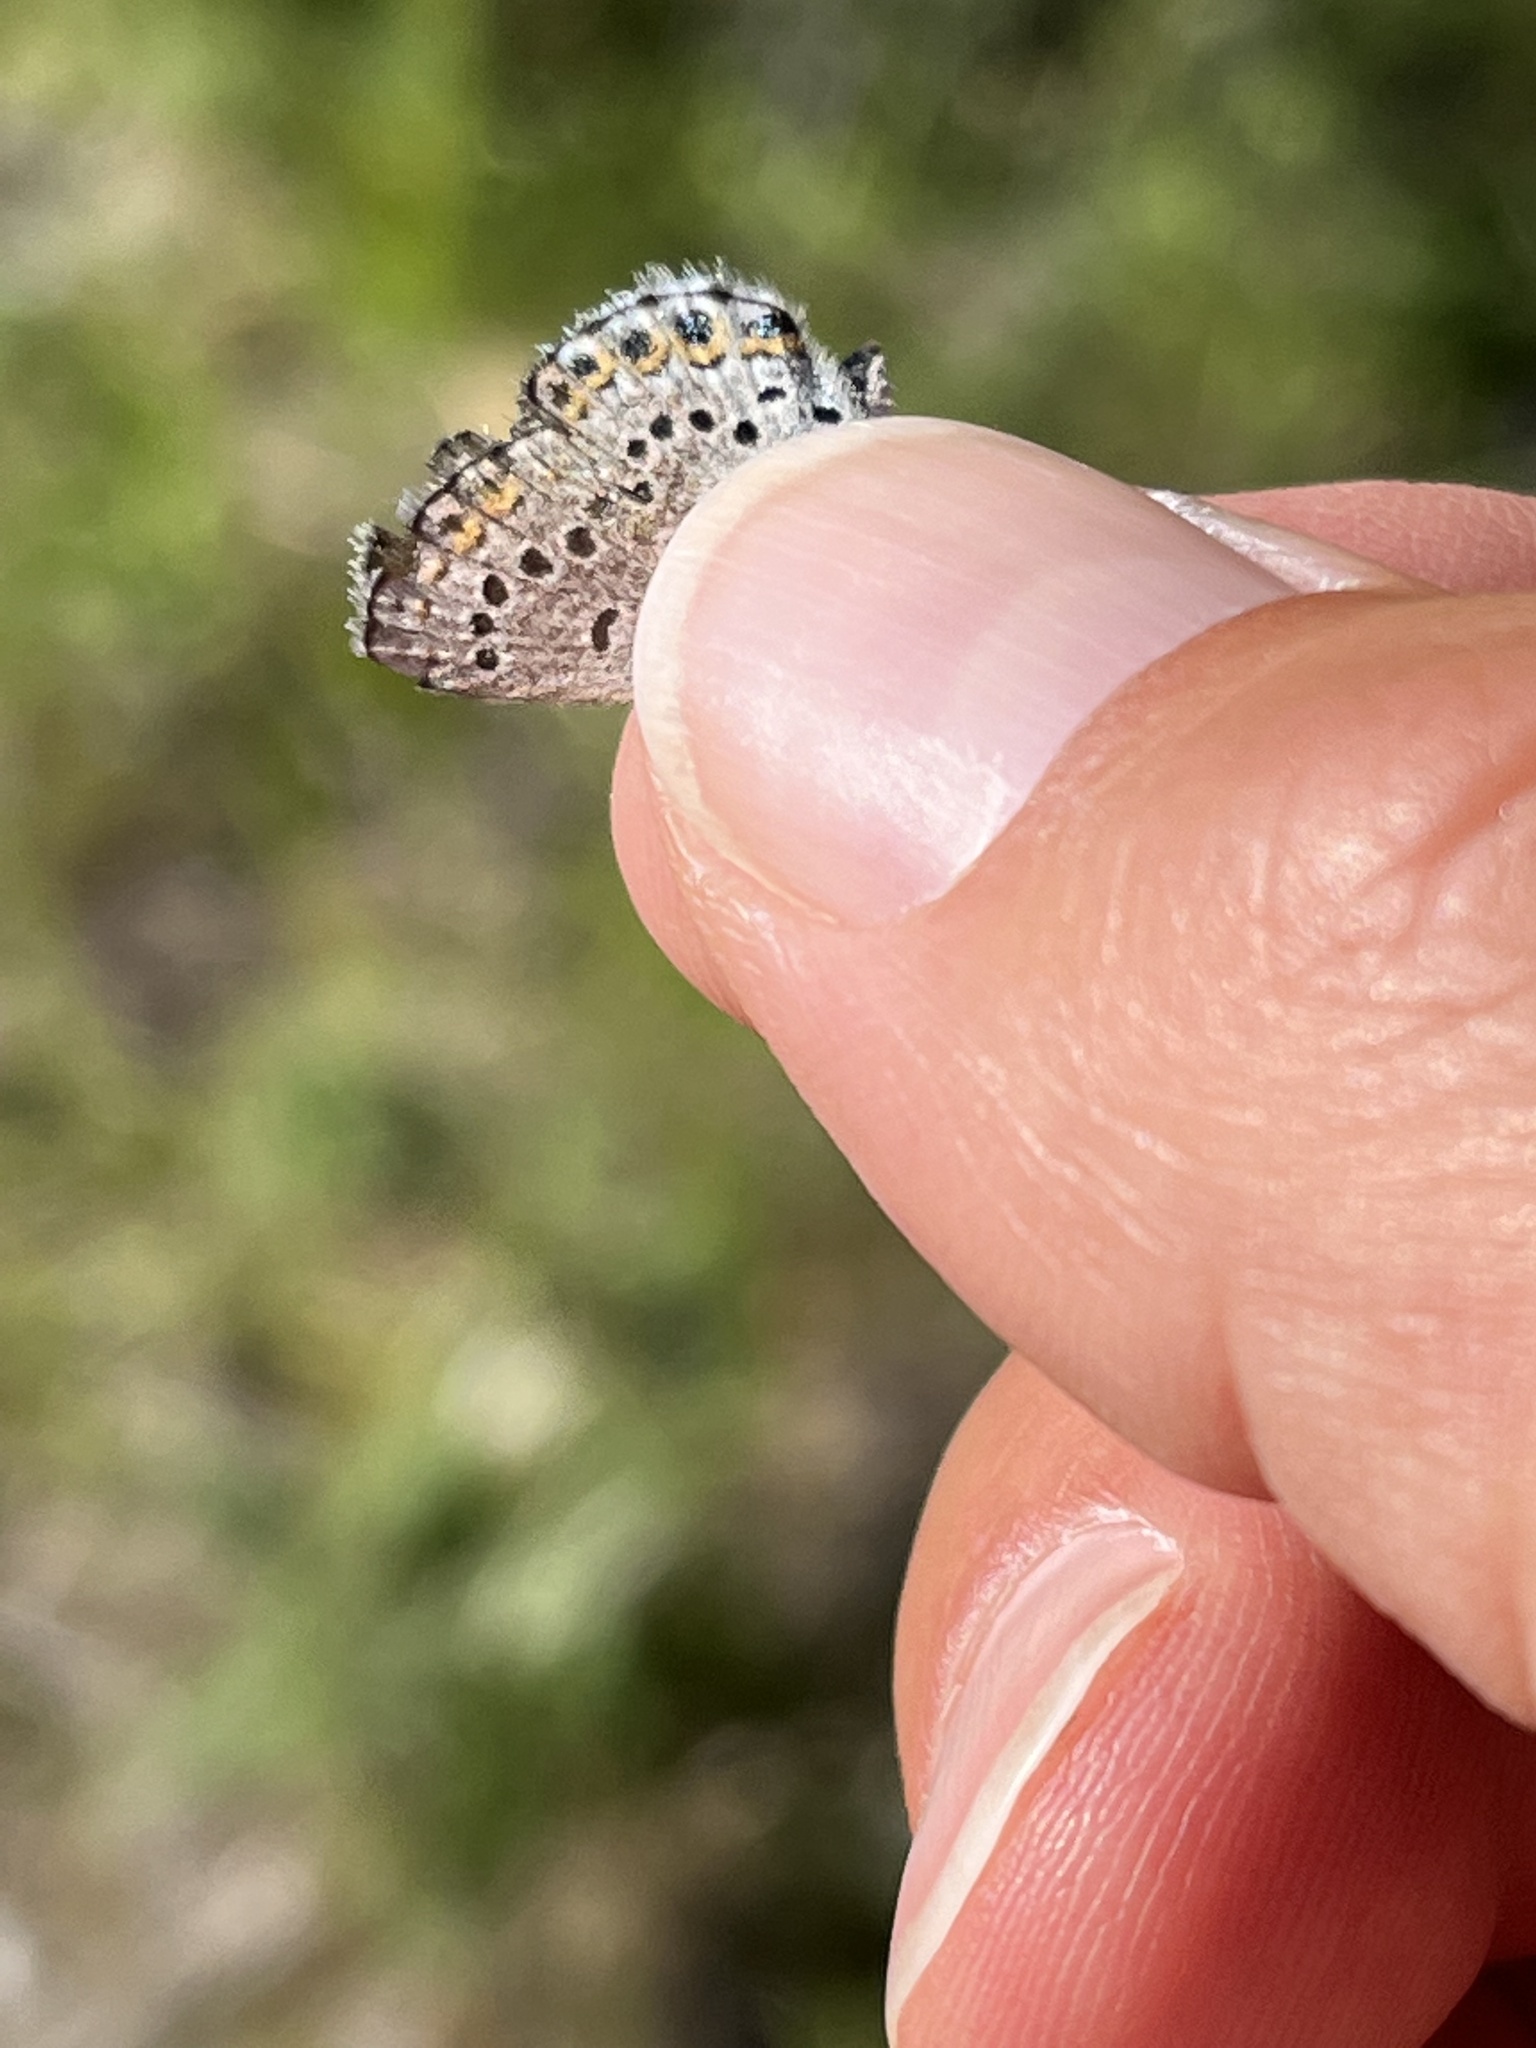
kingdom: Animalia
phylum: Arthropoda
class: Insecta
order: Lepidoptera
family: Lycaenidae
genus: Lycaeides
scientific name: Lycaeides idas
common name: Northern blue
